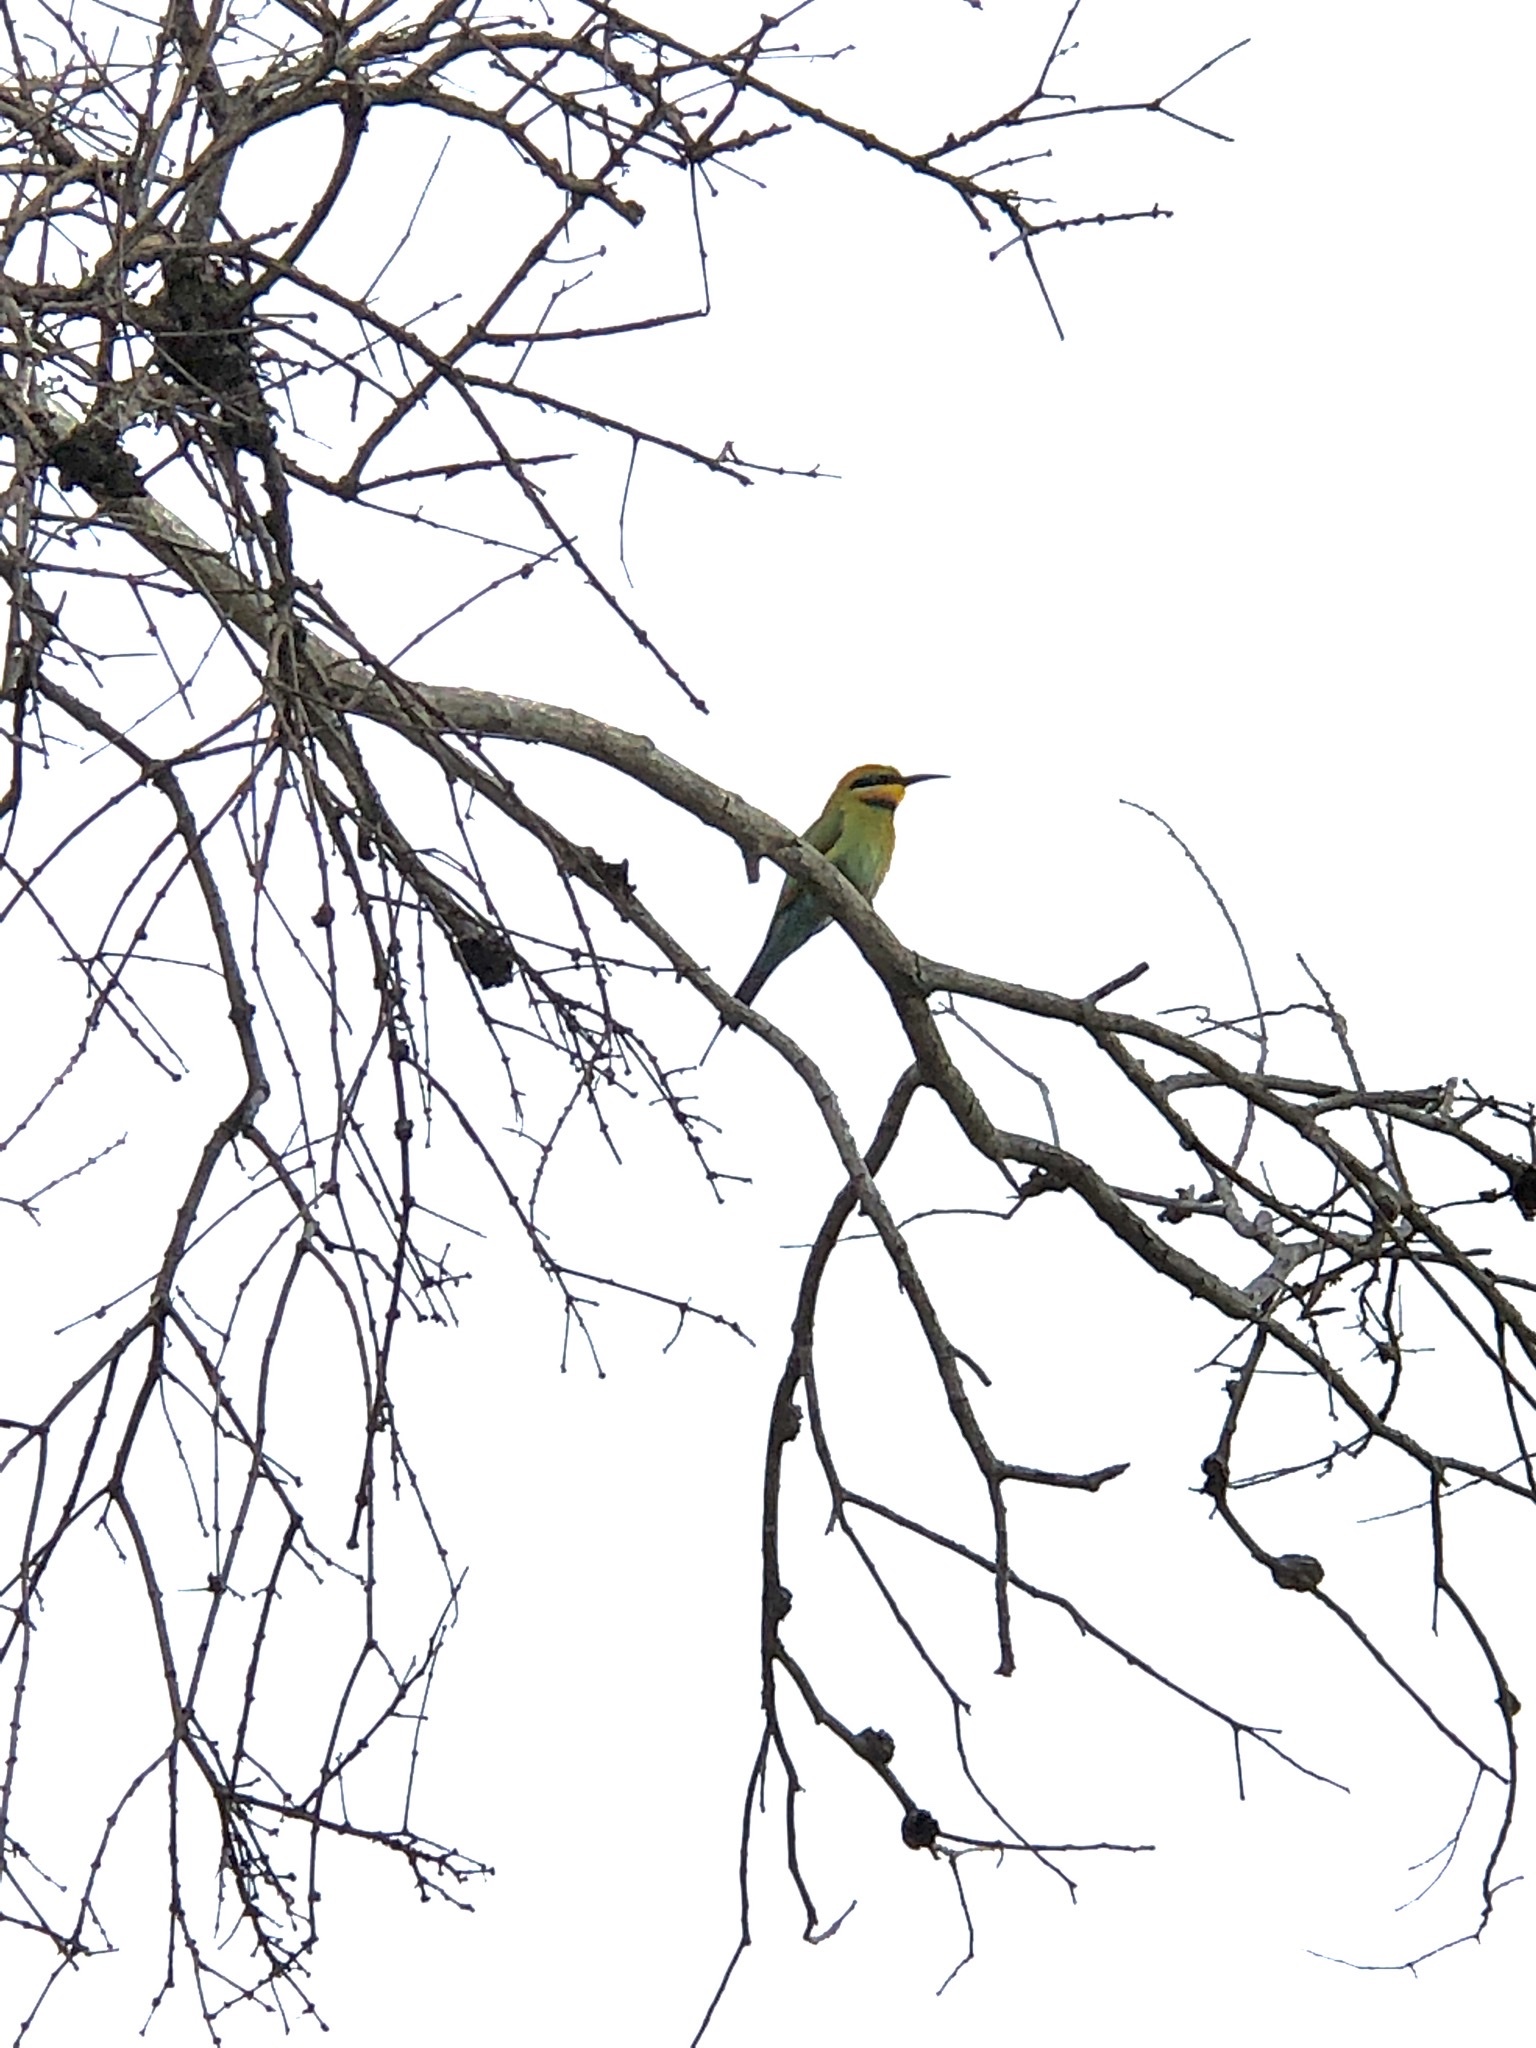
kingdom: Animalia
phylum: Chordata
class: Aves
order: Coraciiformes
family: Meropidae
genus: Merops
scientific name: Merops ornatus
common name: Rainbow bee-eater
